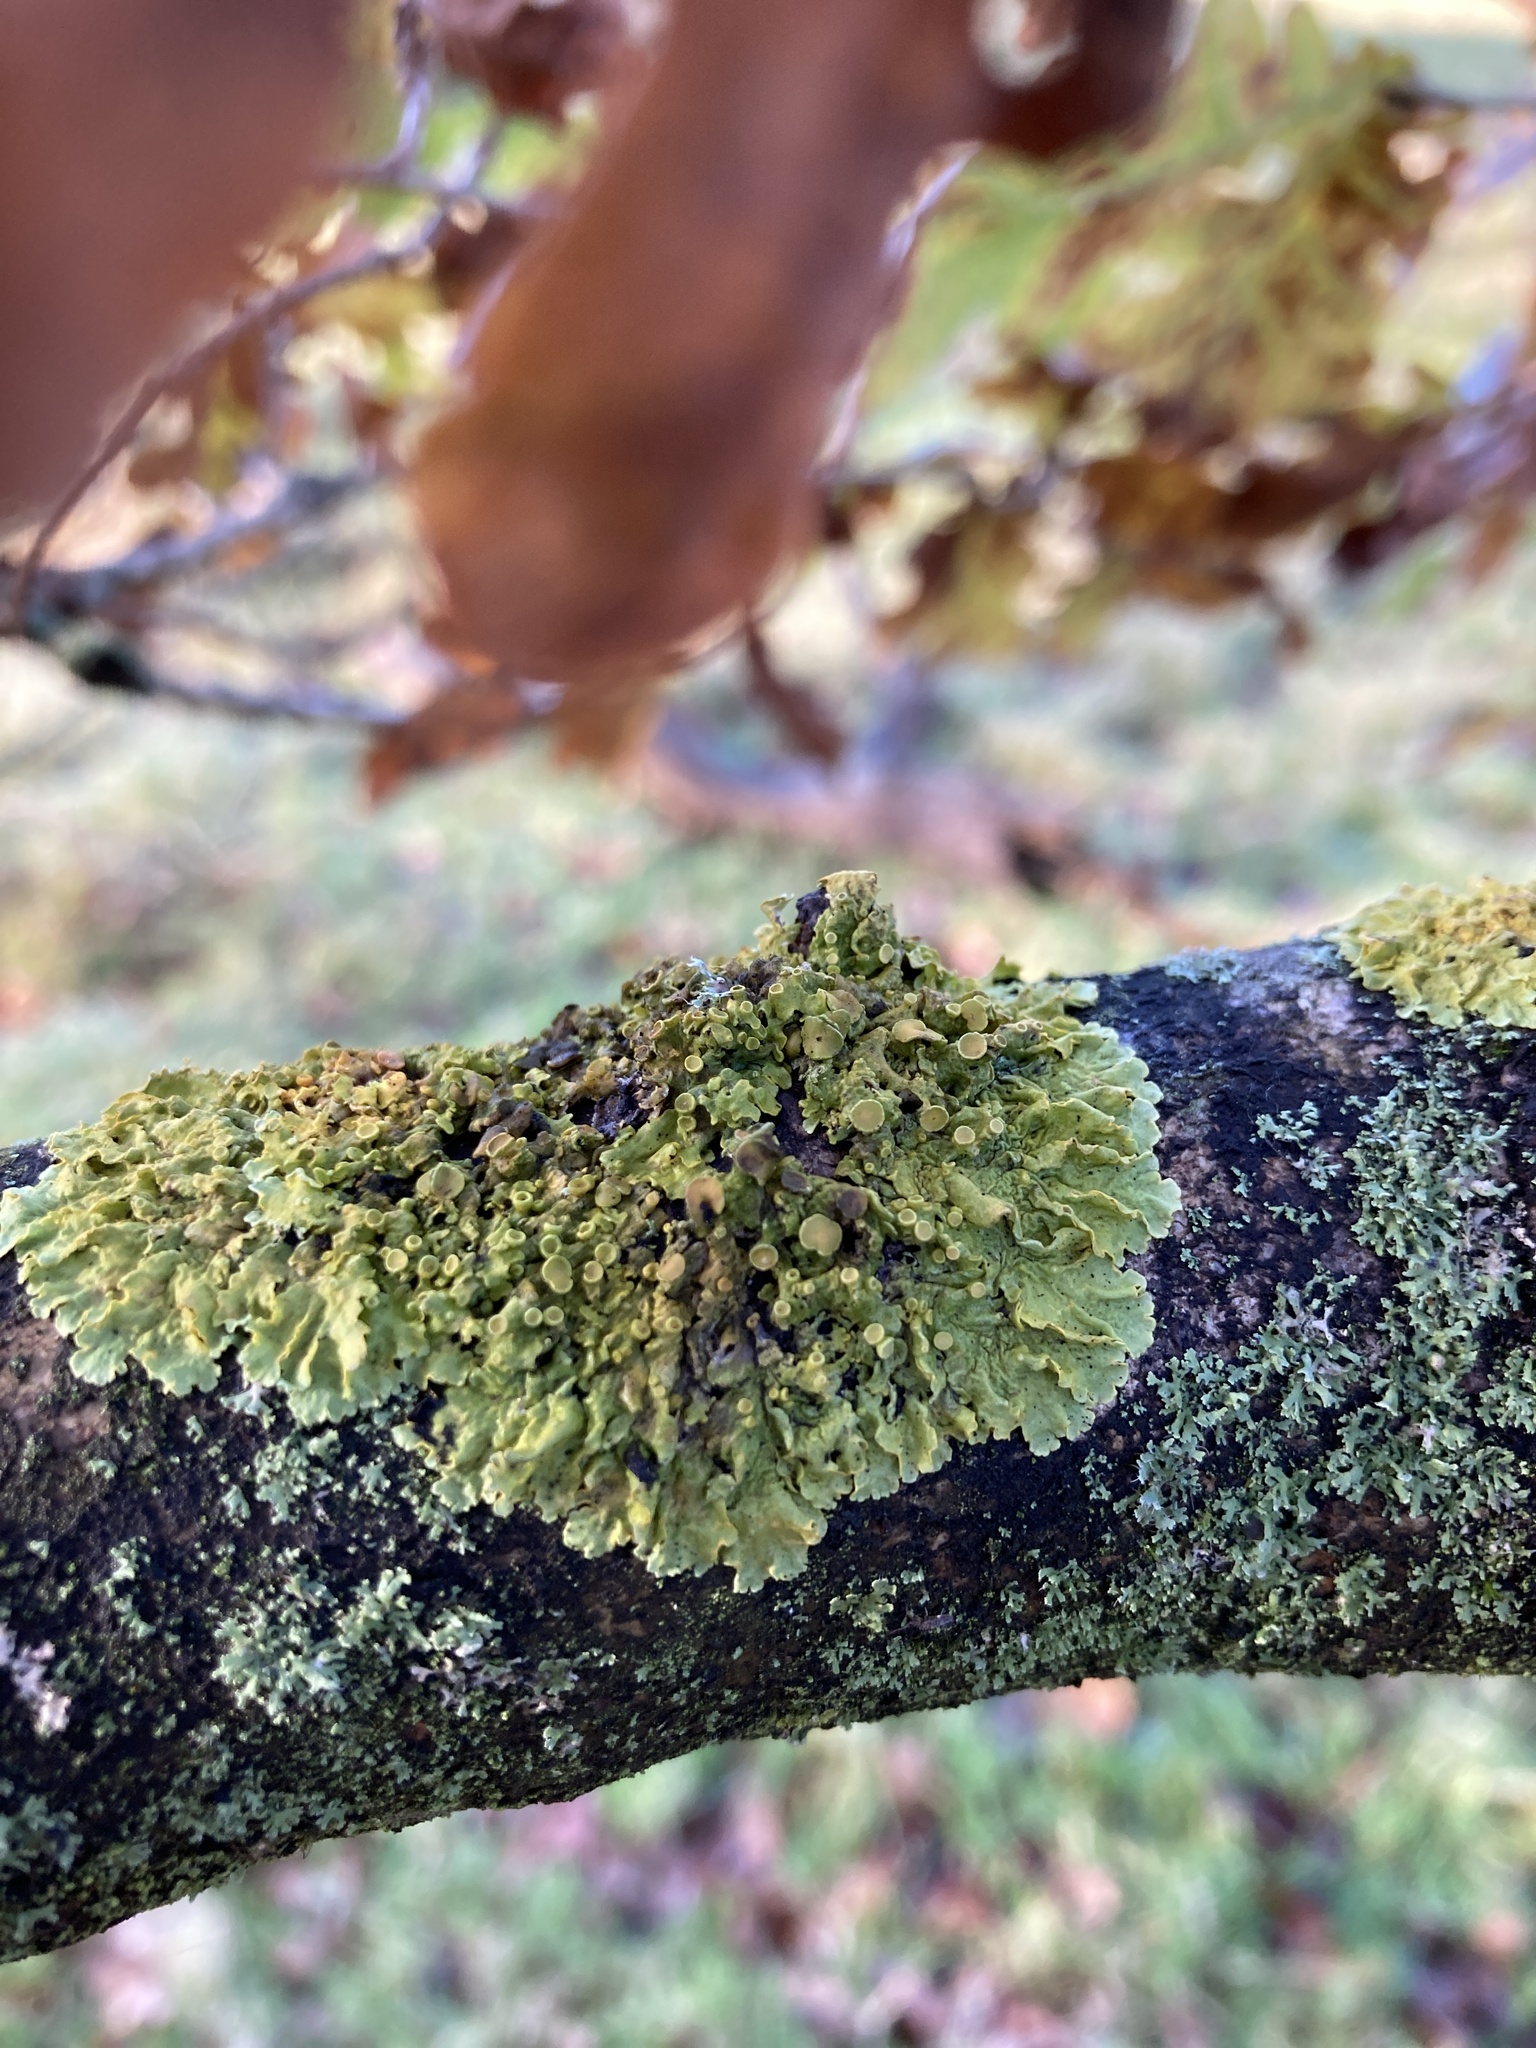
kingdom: Fungi
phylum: Ascomycota
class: Lecanoromycetes
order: Teloschistales
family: Teloschistaceae
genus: Xanthoria
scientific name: Xanthoria parietina
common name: Common orange lichen
